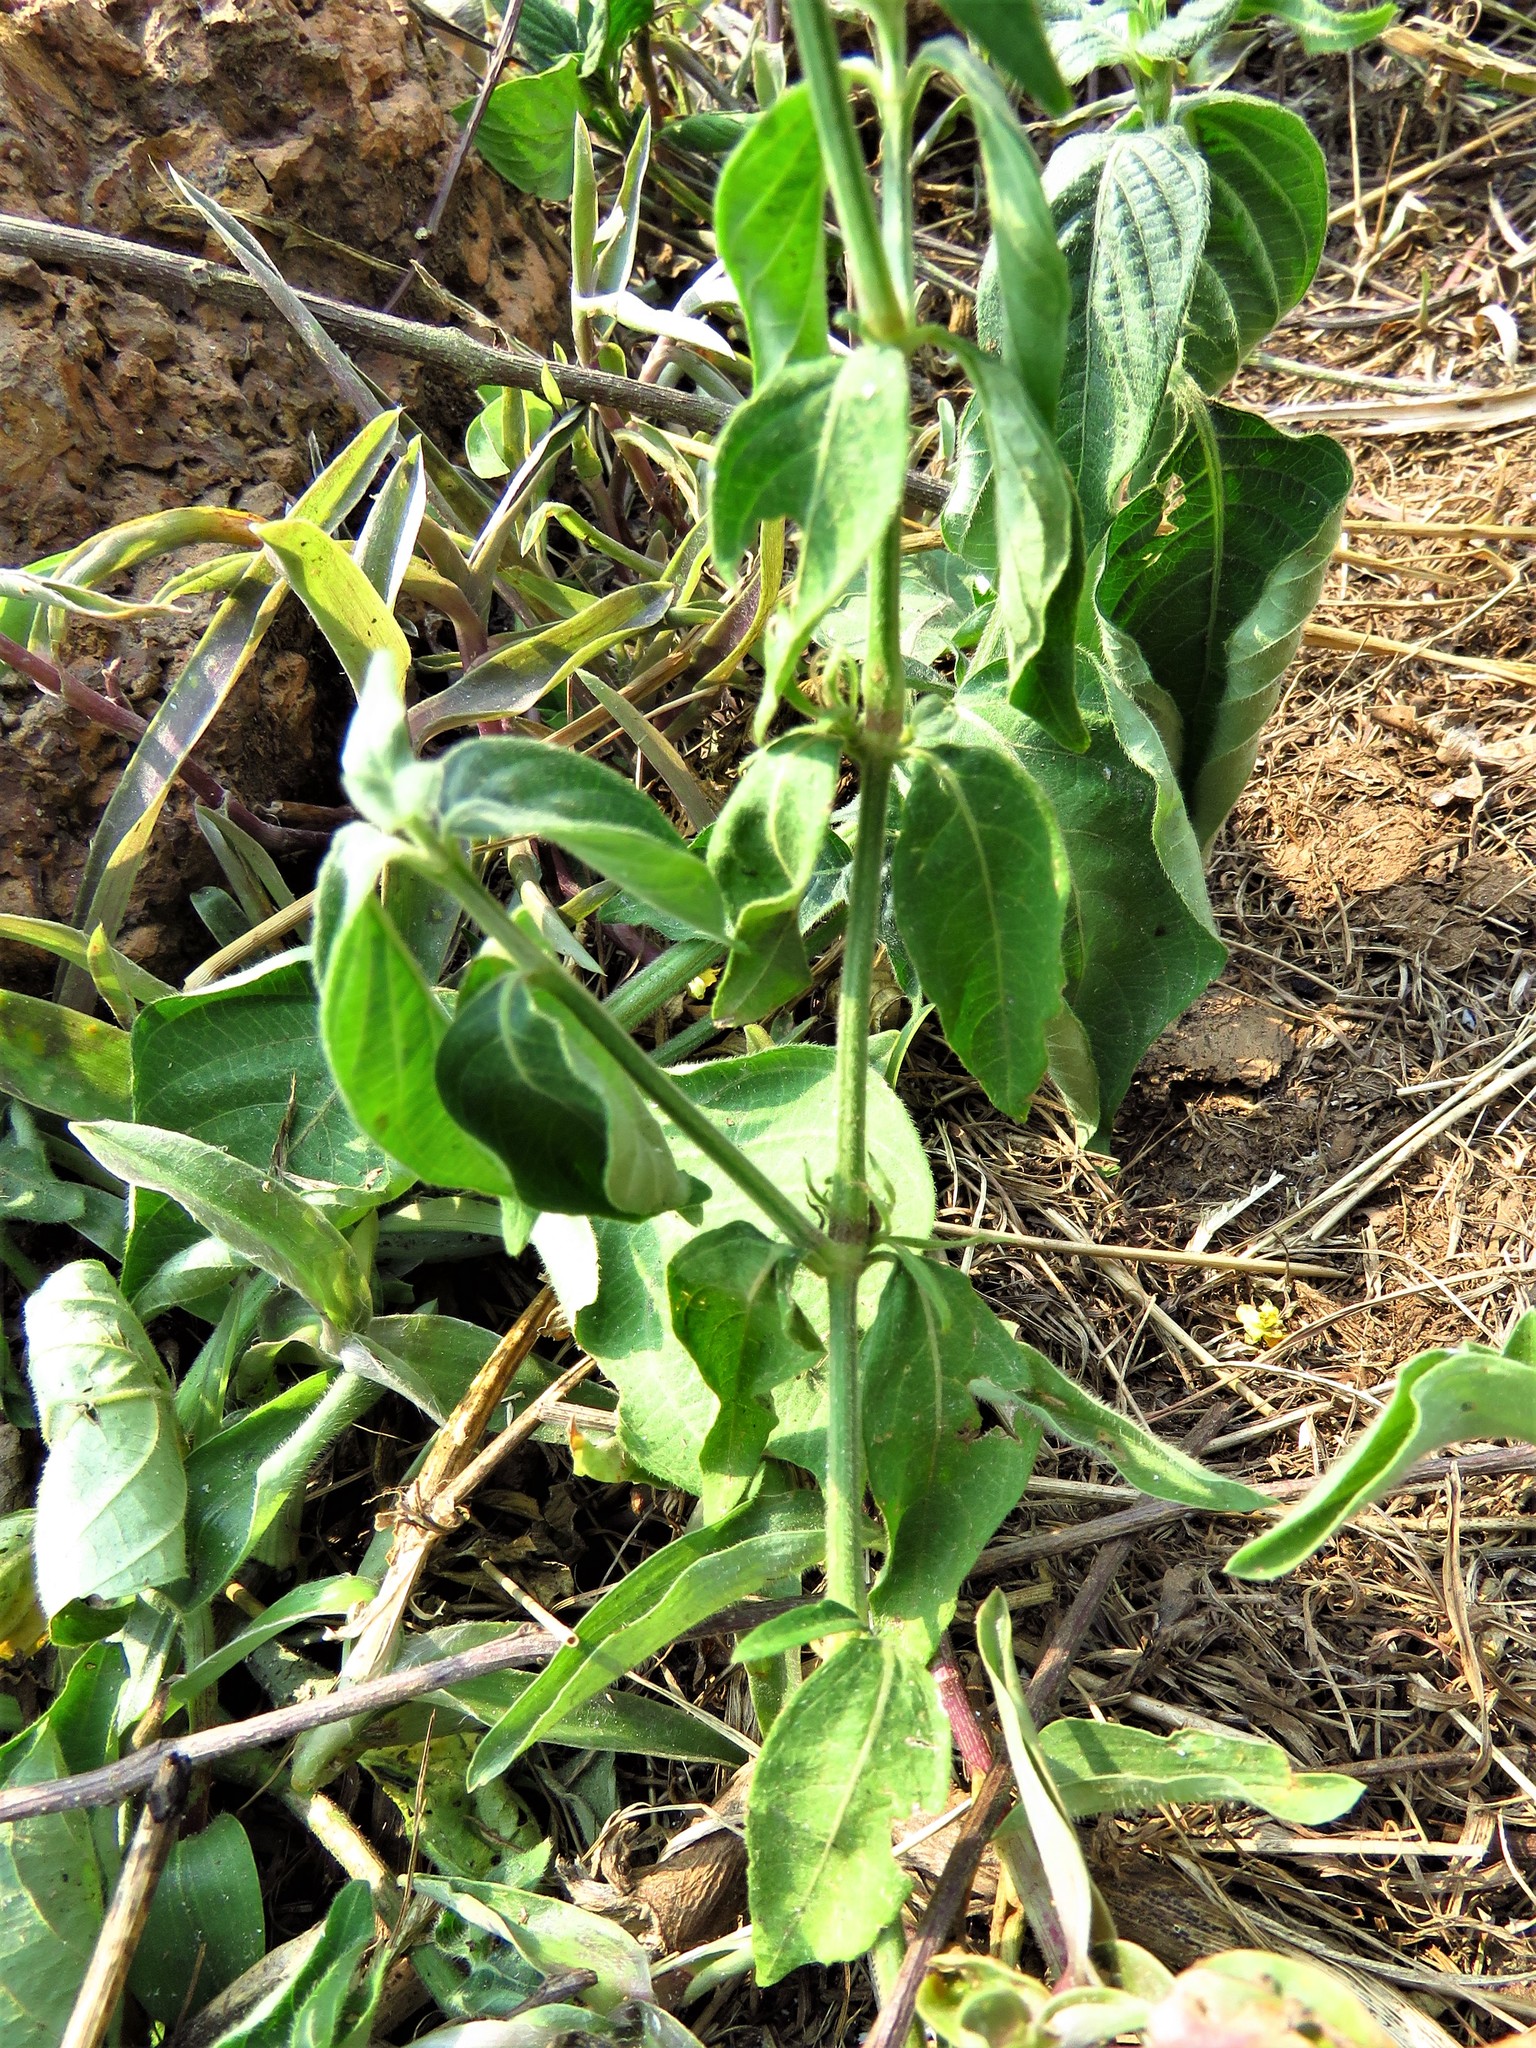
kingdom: Plantae
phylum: Tracheophyta
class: Magnoliopsida
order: Lamiales
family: Acanthaceae
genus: Justicia
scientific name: Justicia flava
